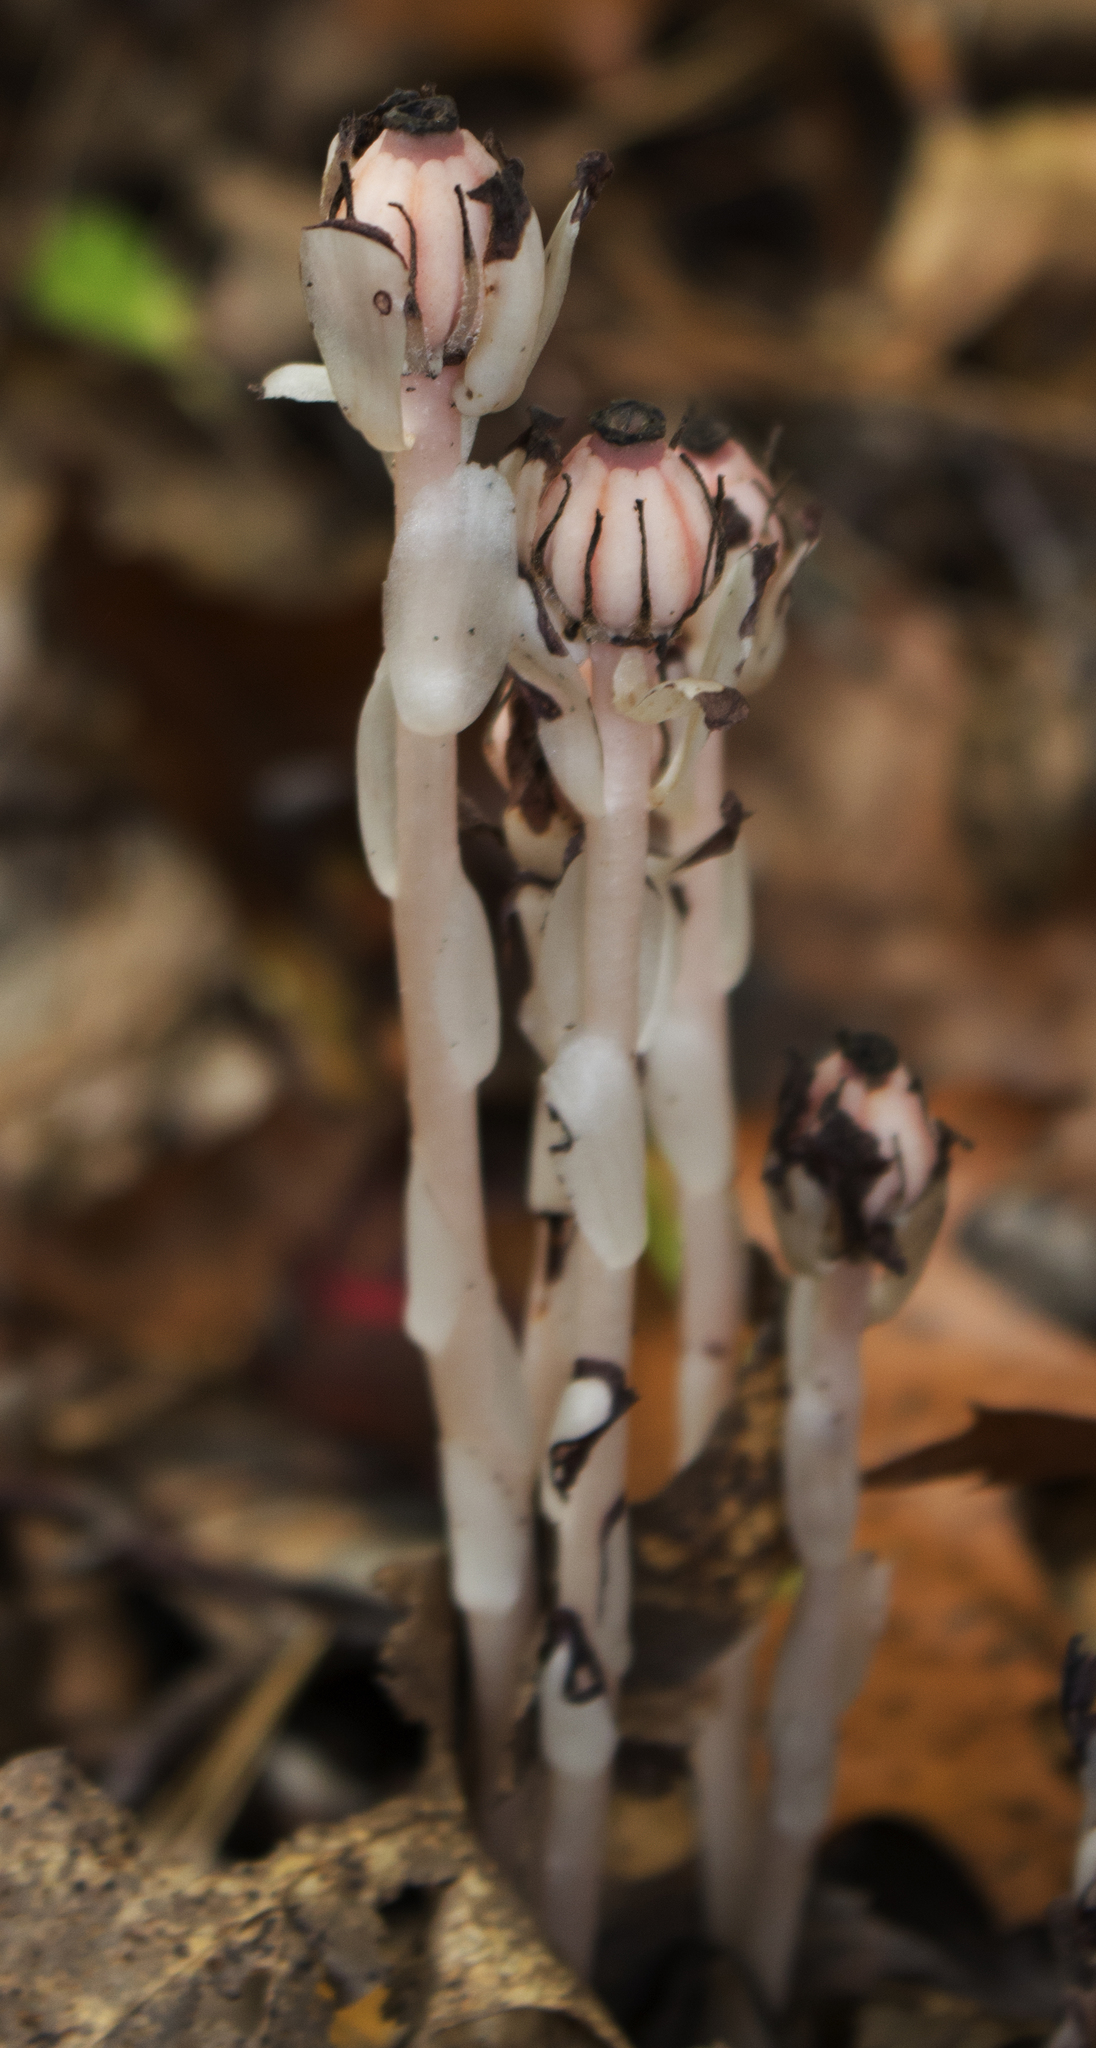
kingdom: Plantae
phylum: Tracheophyta
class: Magnoliopsida
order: Ericales
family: Ericaceae
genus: Monotropa
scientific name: Monotropa uniflora
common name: Convulsion root
